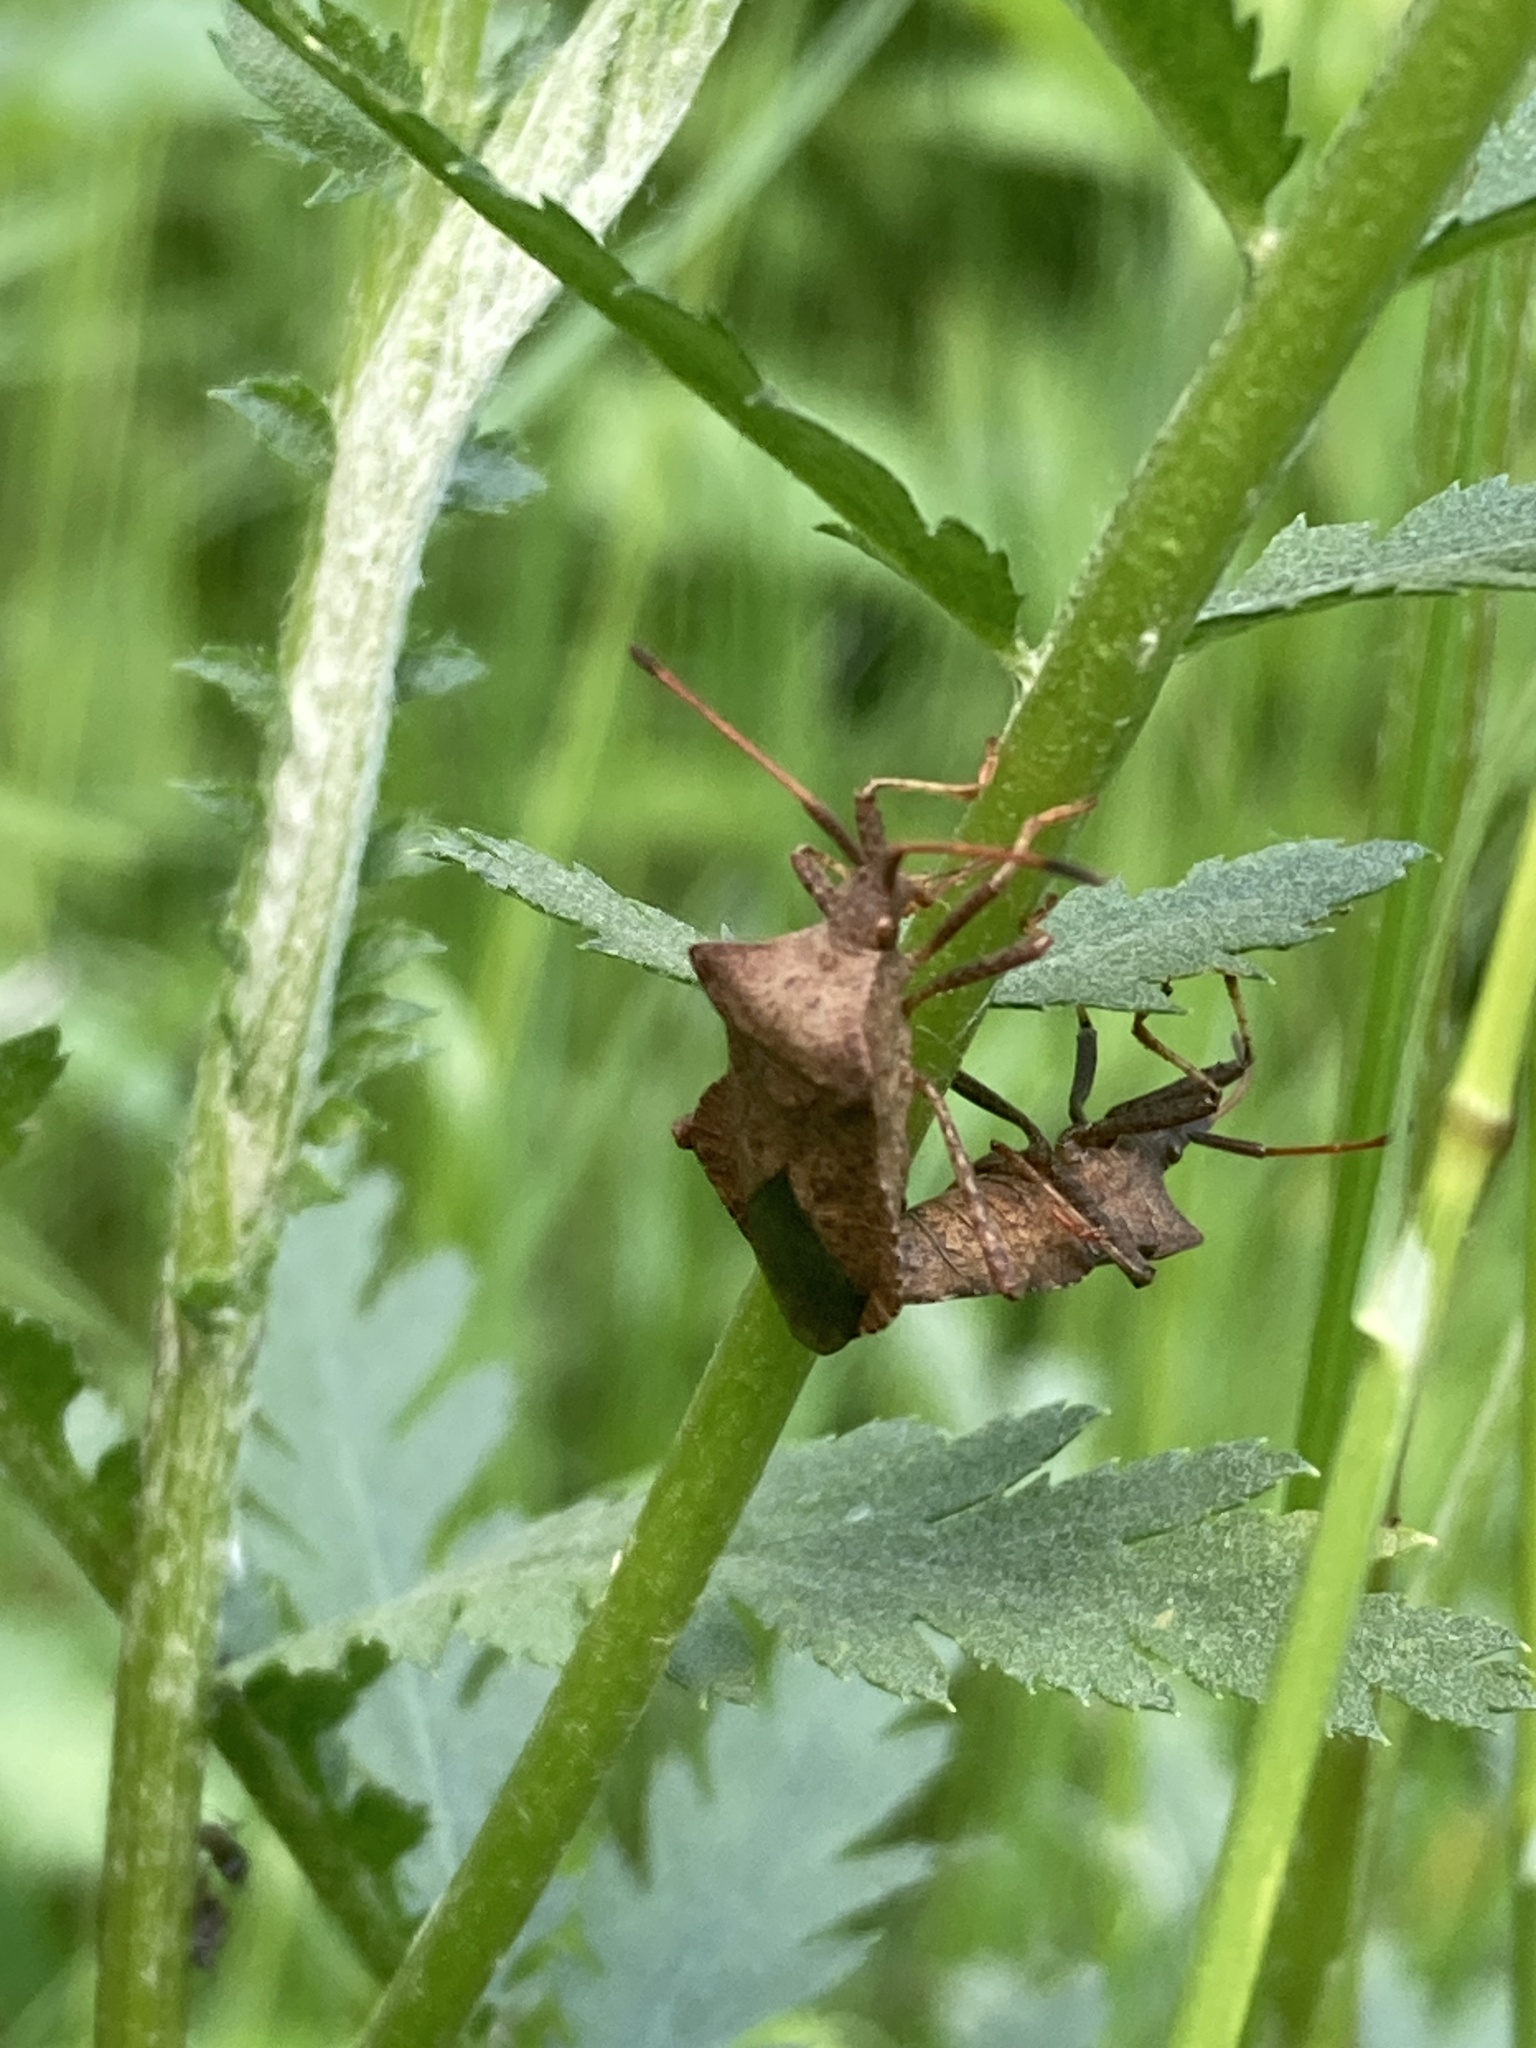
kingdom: Animalia
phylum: Arthropoda
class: Insecta
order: Hemiptera
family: Coreidae
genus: Coreus
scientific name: Coreus marginatus
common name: Dock bug
